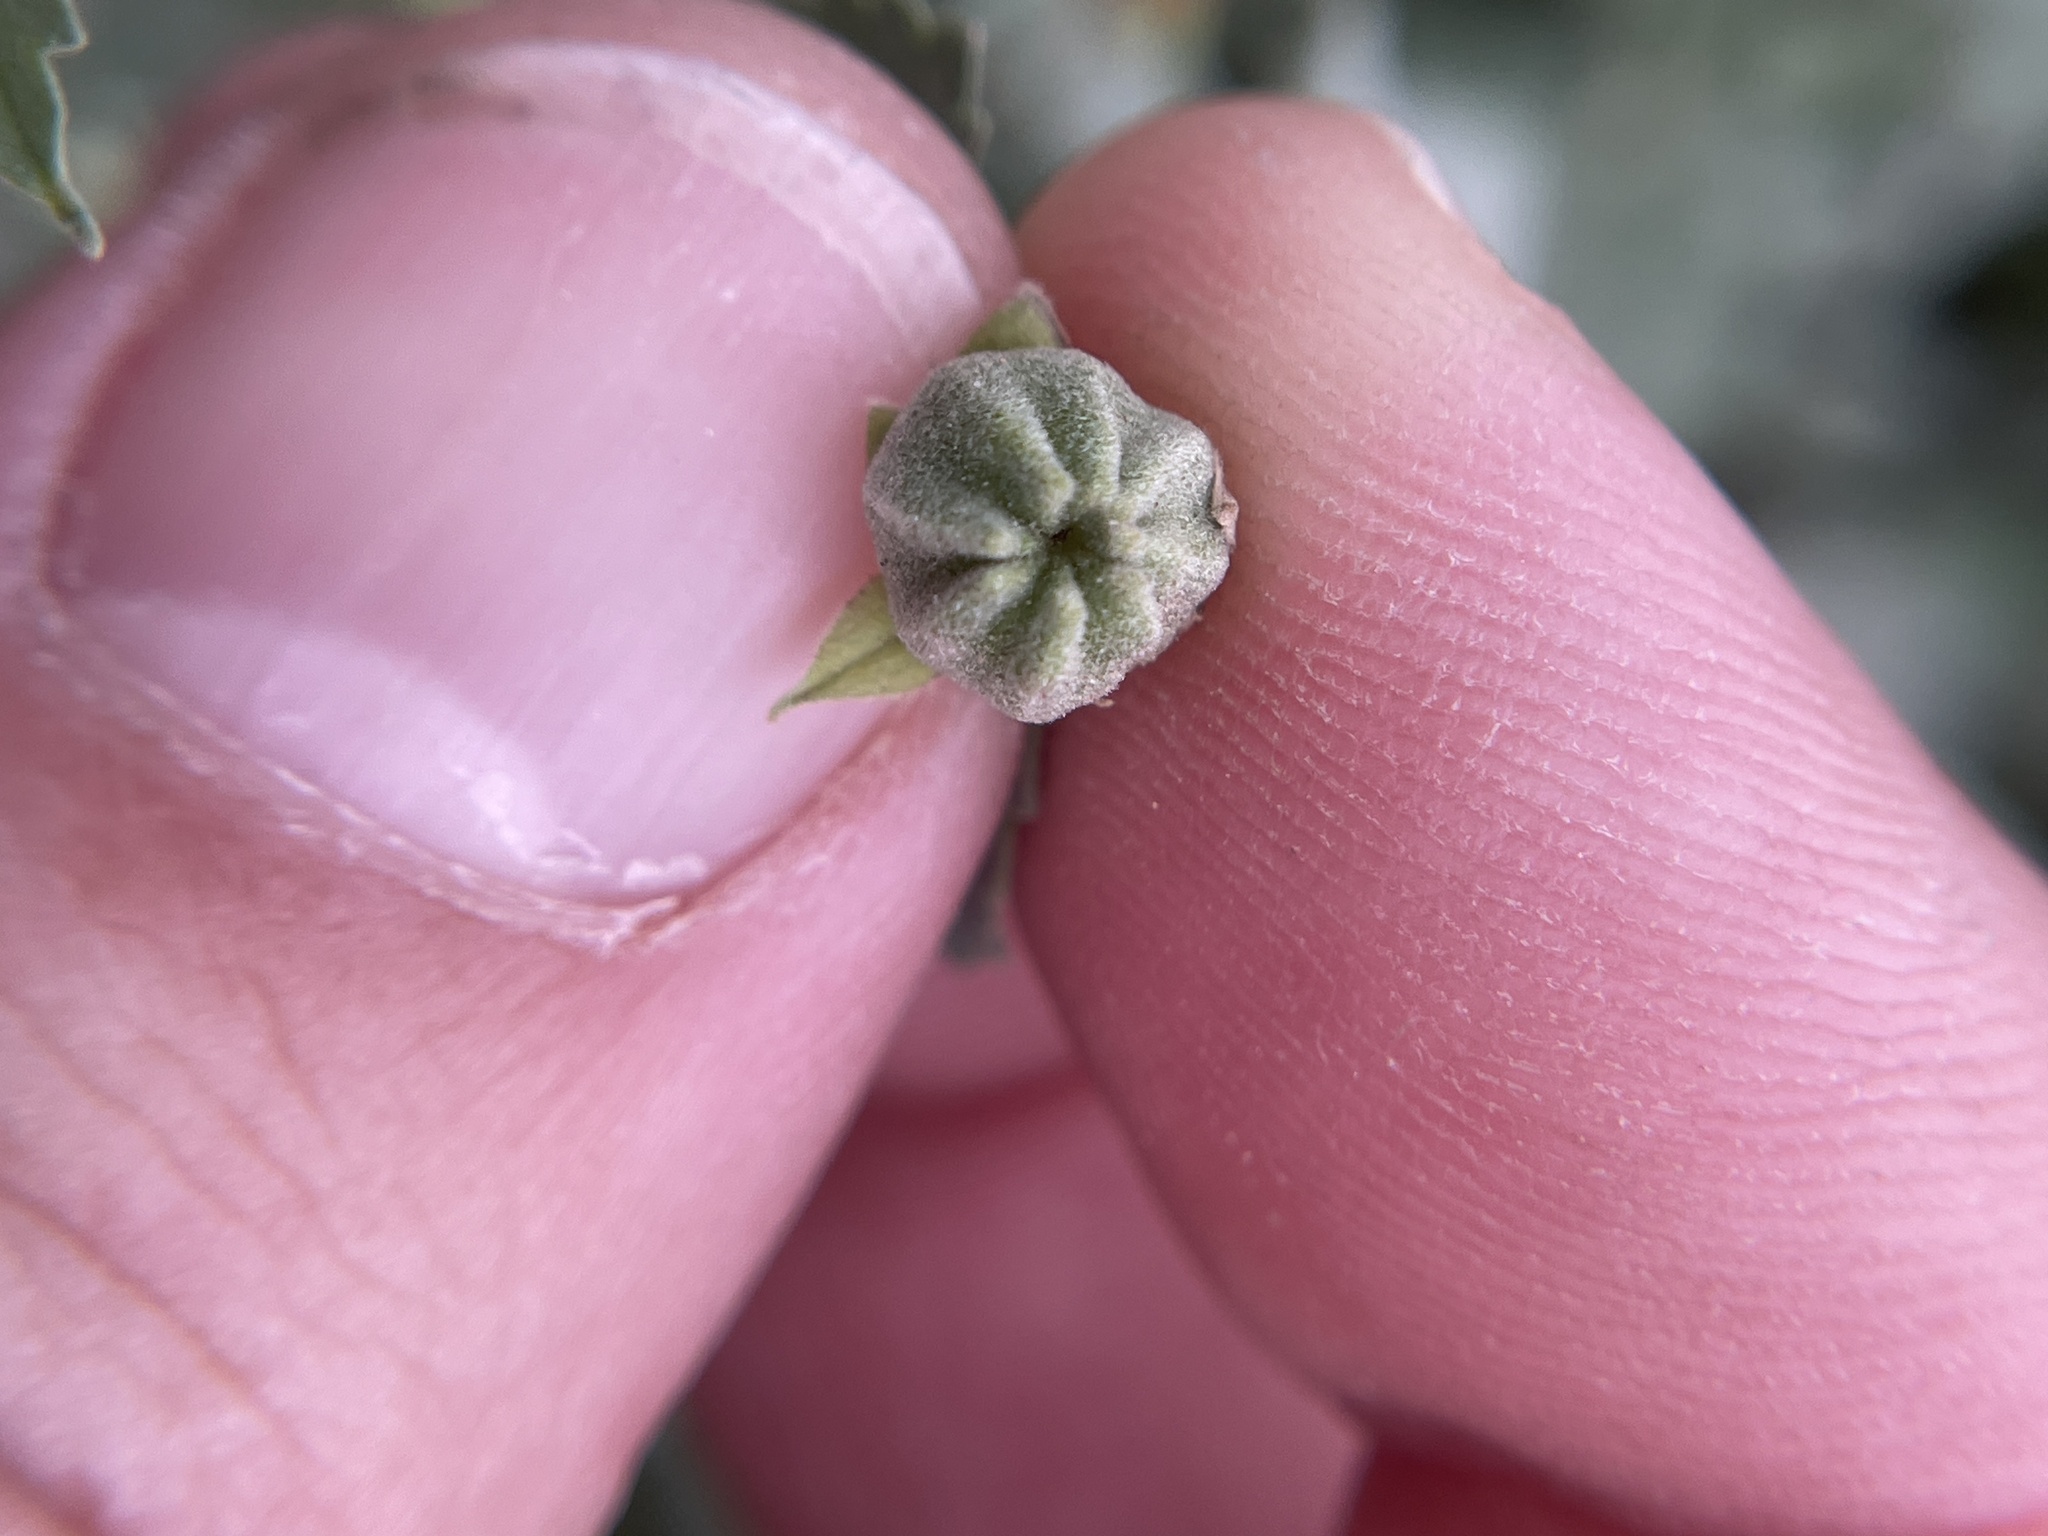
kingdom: Plantae
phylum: Tracheophyta
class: Magnoliopsida
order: Malvales
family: Malvaceae
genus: Abutilon
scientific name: Abutilon fruticosum
